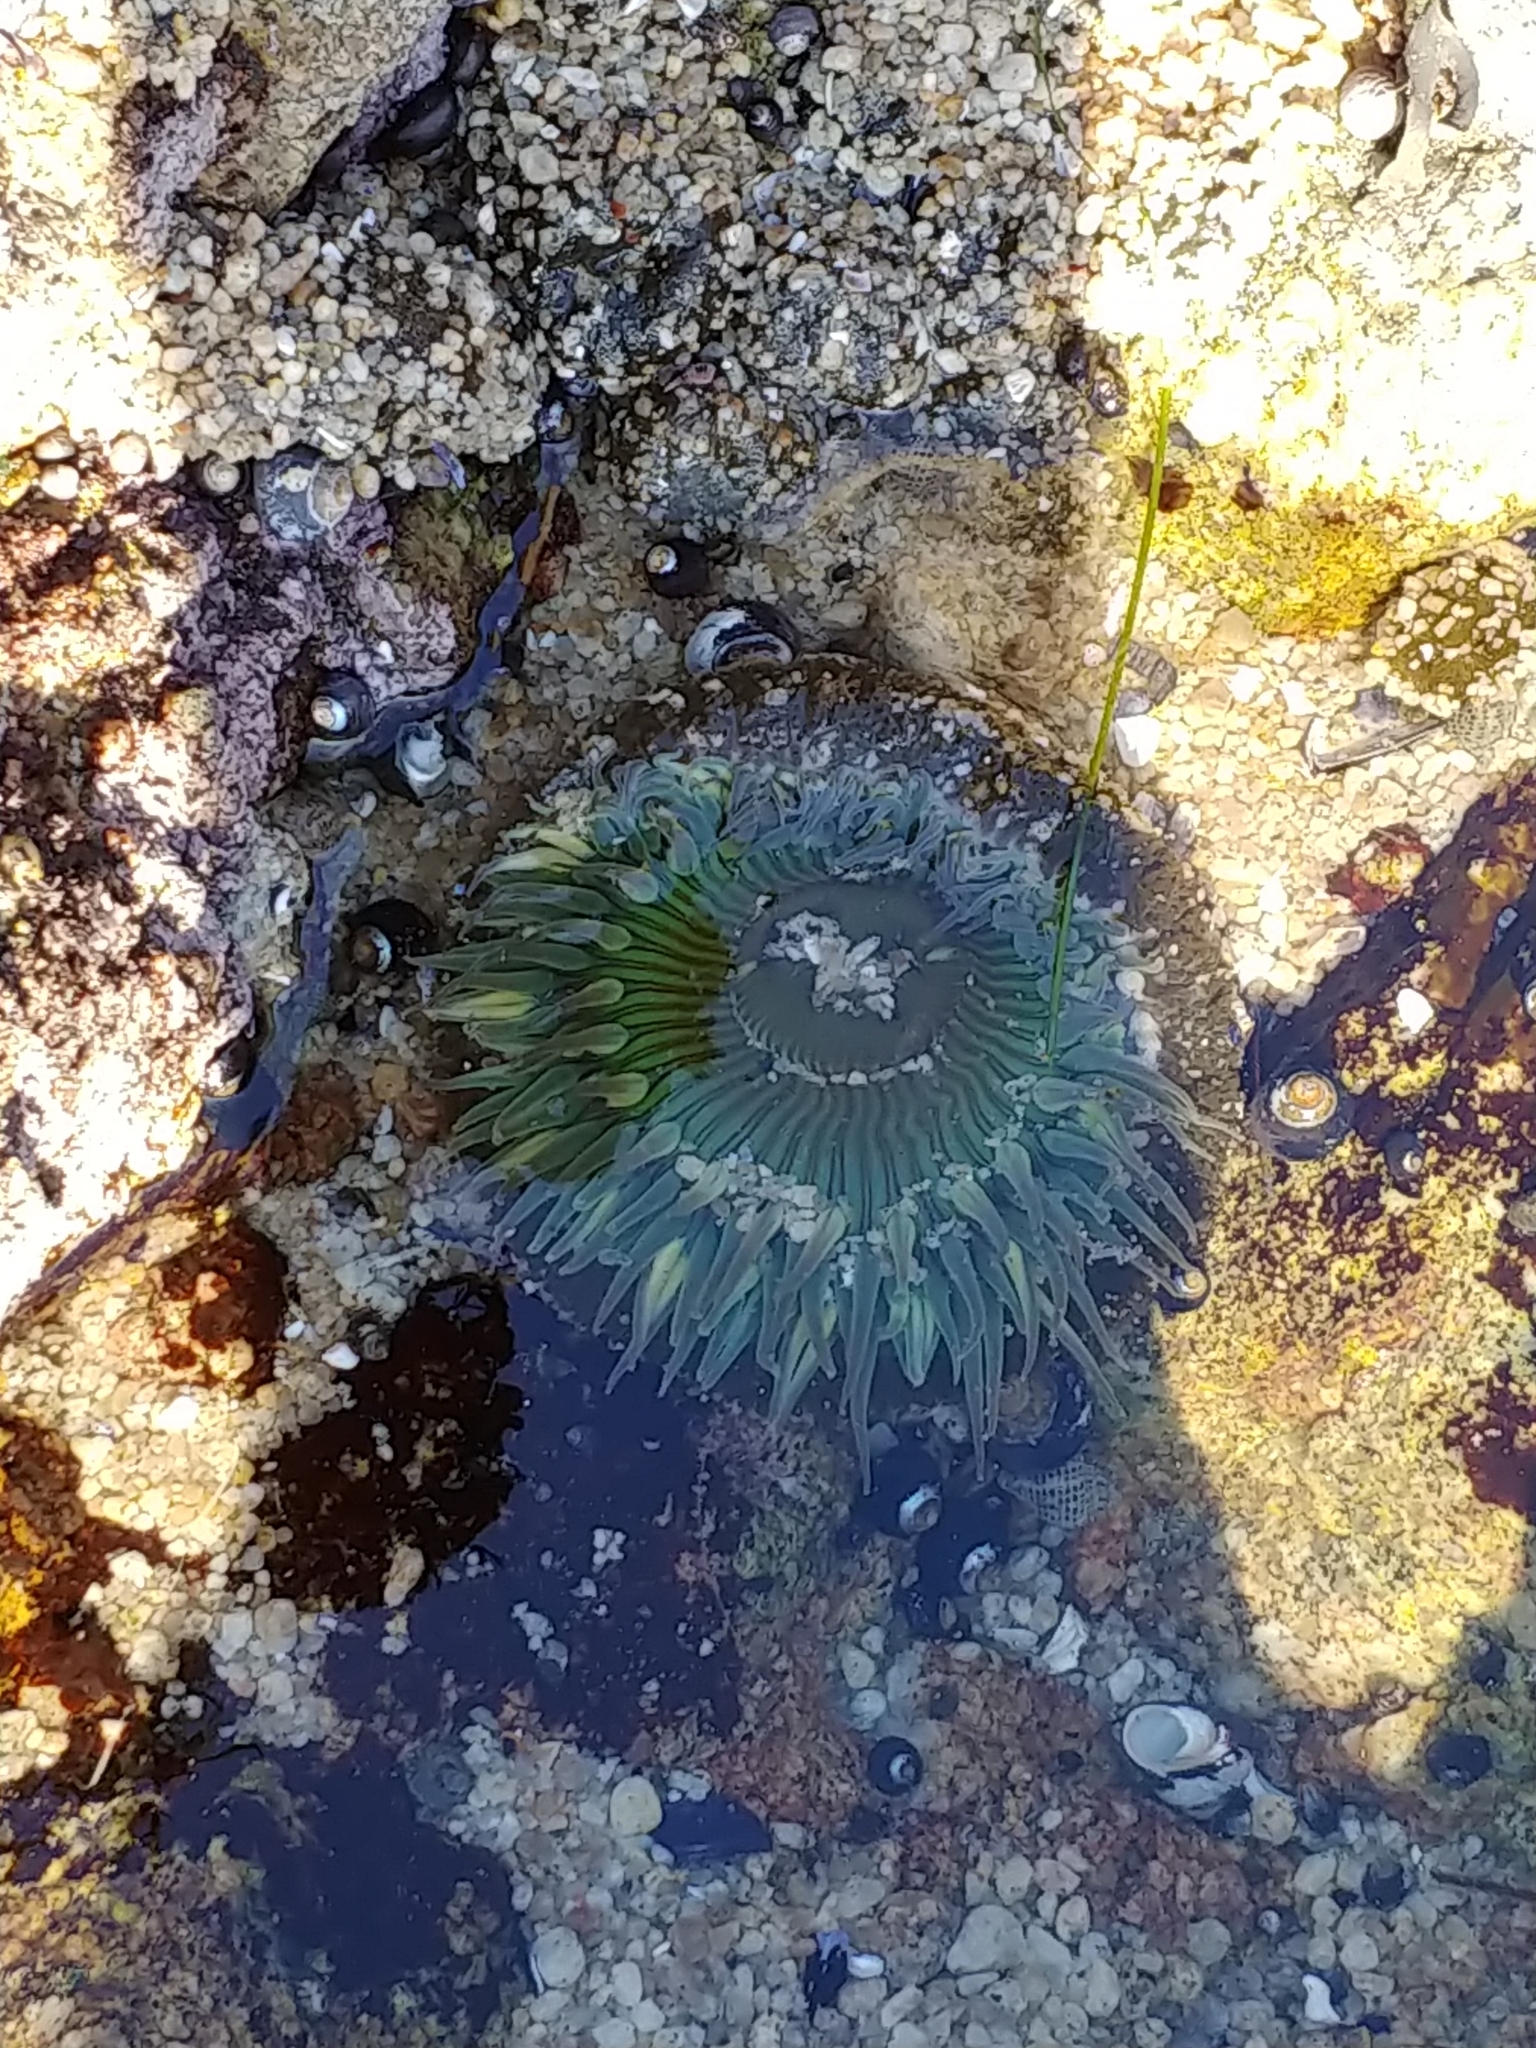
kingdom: Animalia
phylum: Cnidaria
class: Anthozoa
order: Actiniaria
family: Actiniidae
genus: Anthopleura
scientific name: Anthopleura sola
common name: Sun anemone
